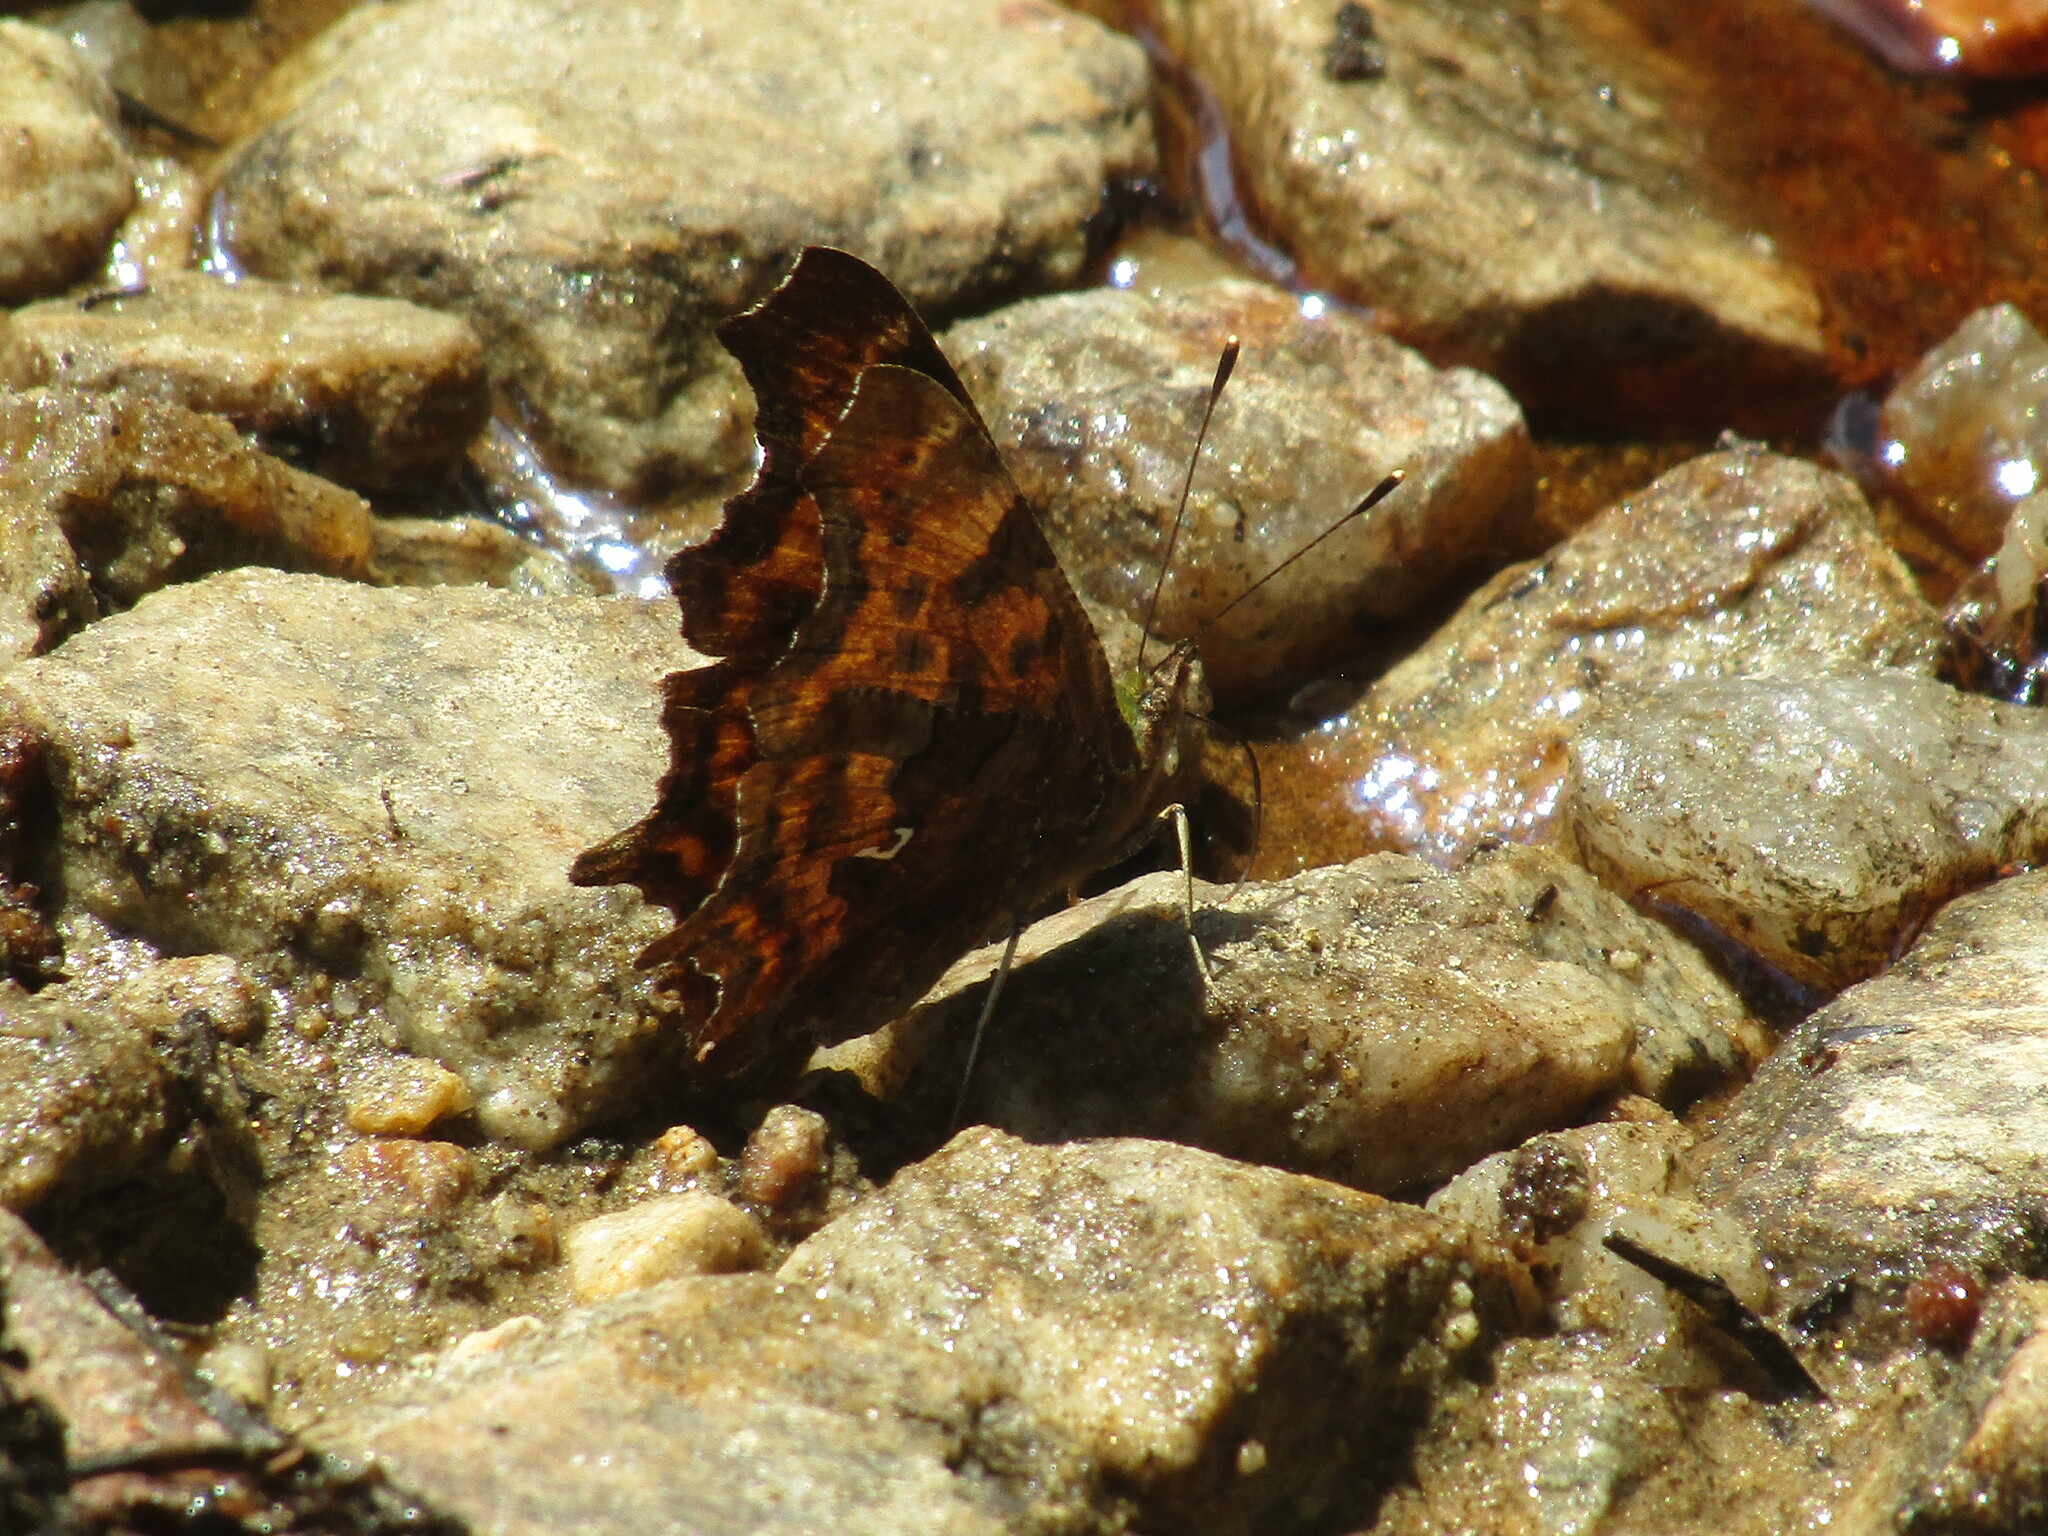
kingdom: Animalia
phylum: Arthropoda
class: Insecta
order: Lepidoptera
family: Nymphalidae
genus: Polygonia
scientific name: Polygonia c-album
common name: Comma
